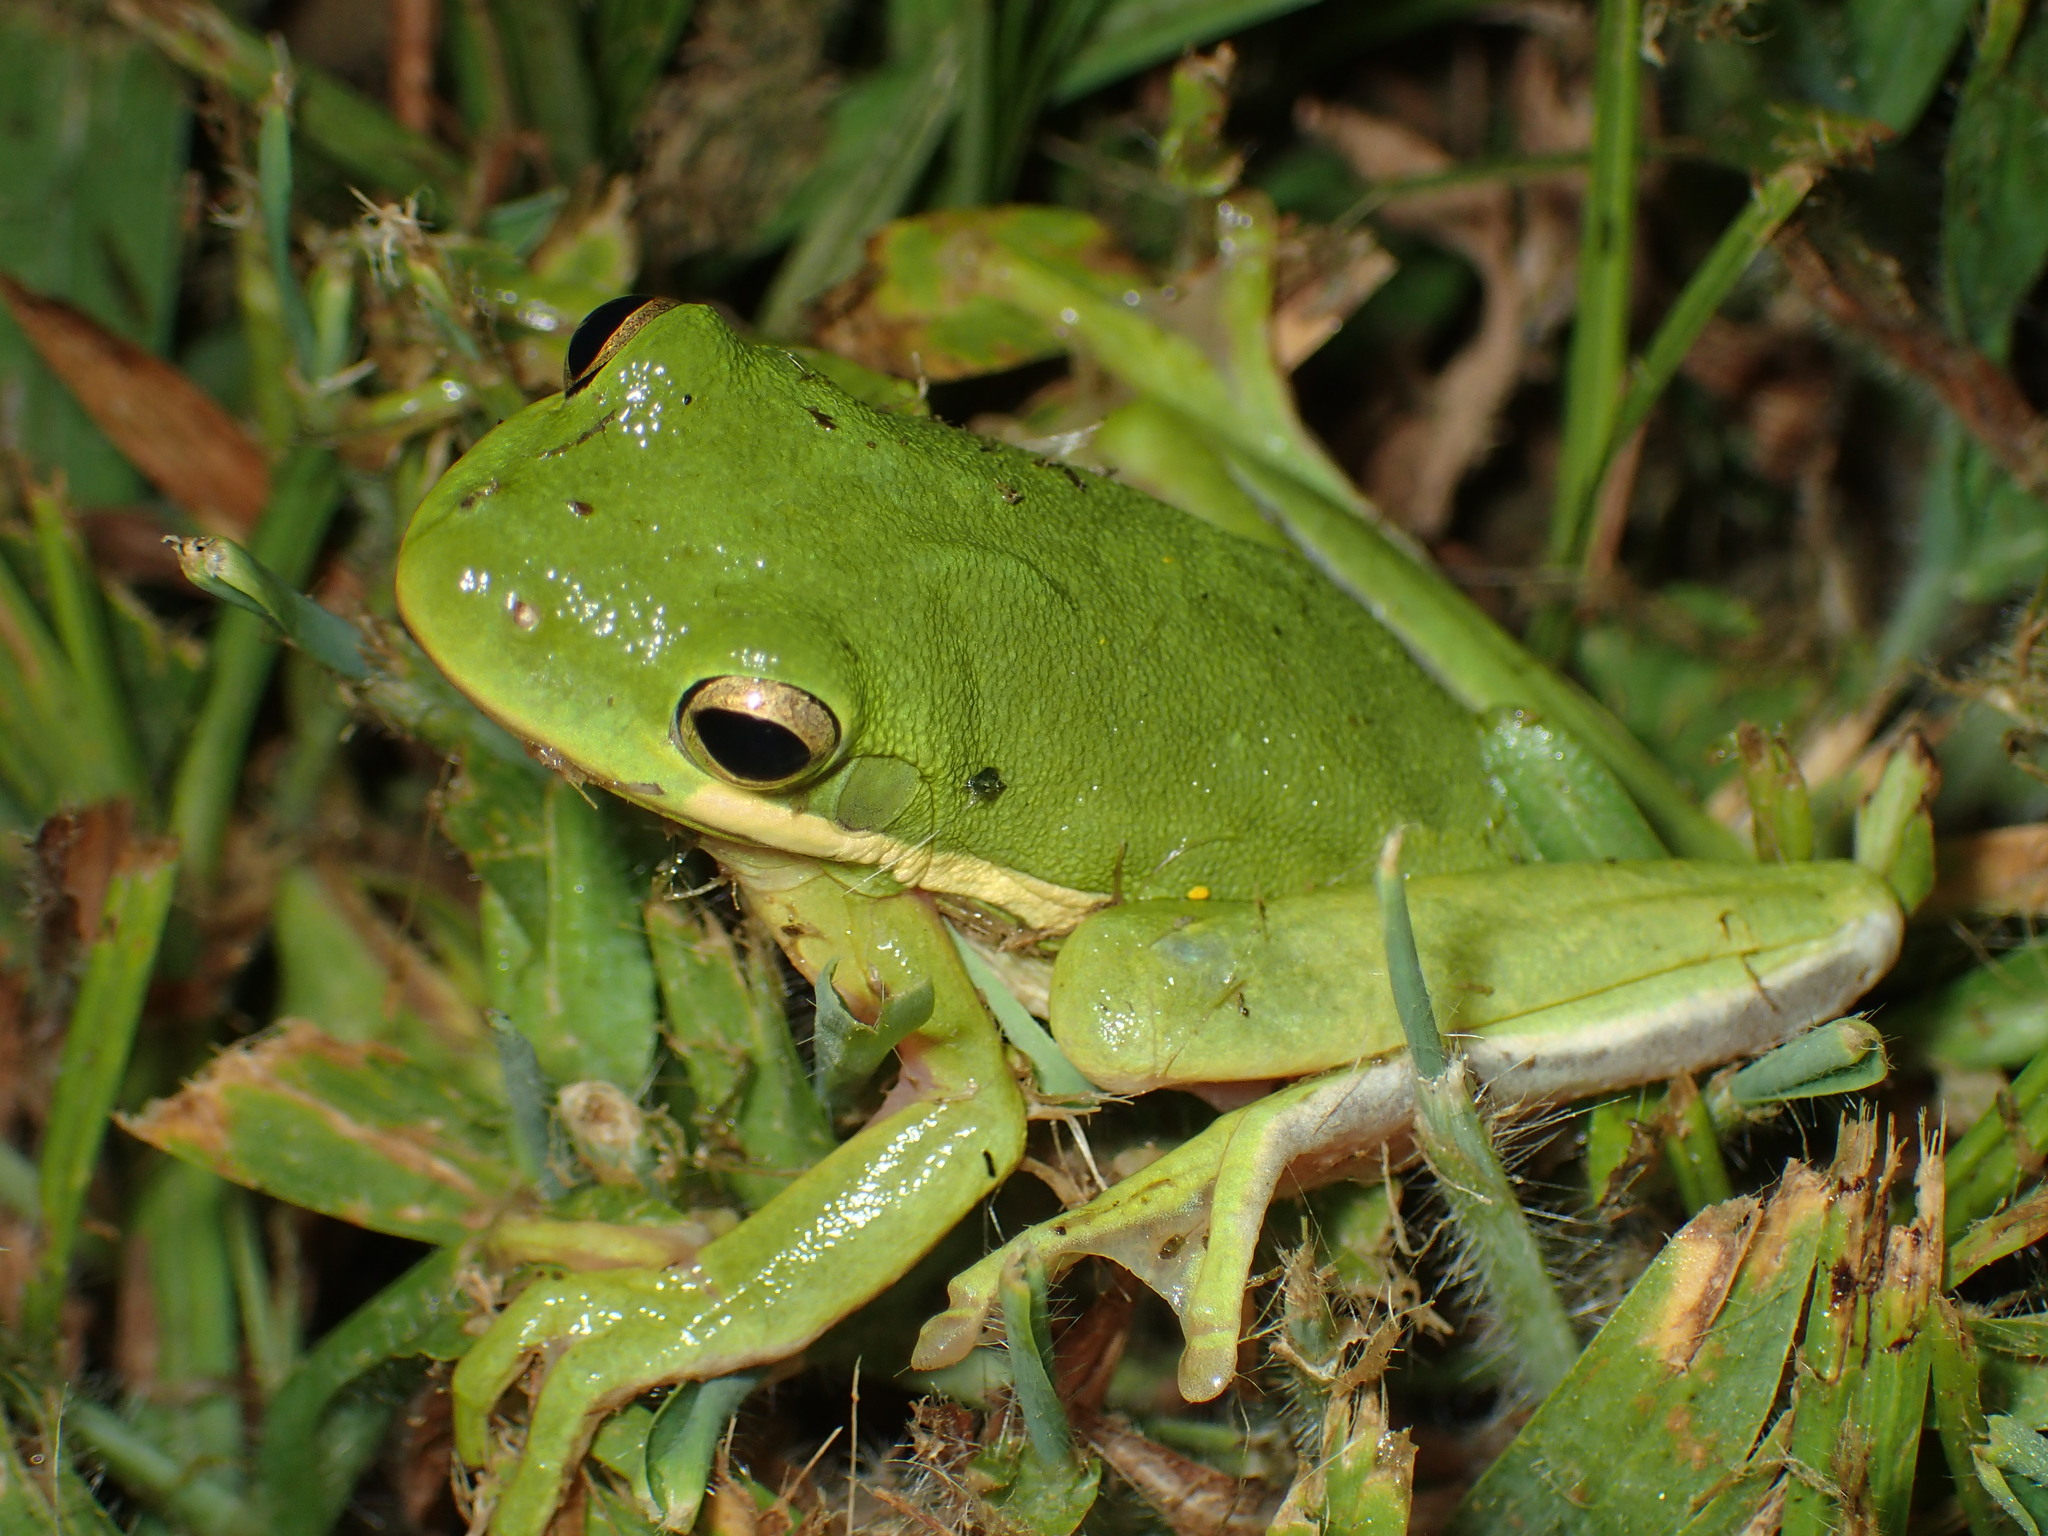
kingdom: Animalia
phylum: Chordata
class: Amphibia
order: Anura
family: Hylidae
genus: Dryophytes
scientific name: Dryophytes cinereus
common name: Green treefrog
